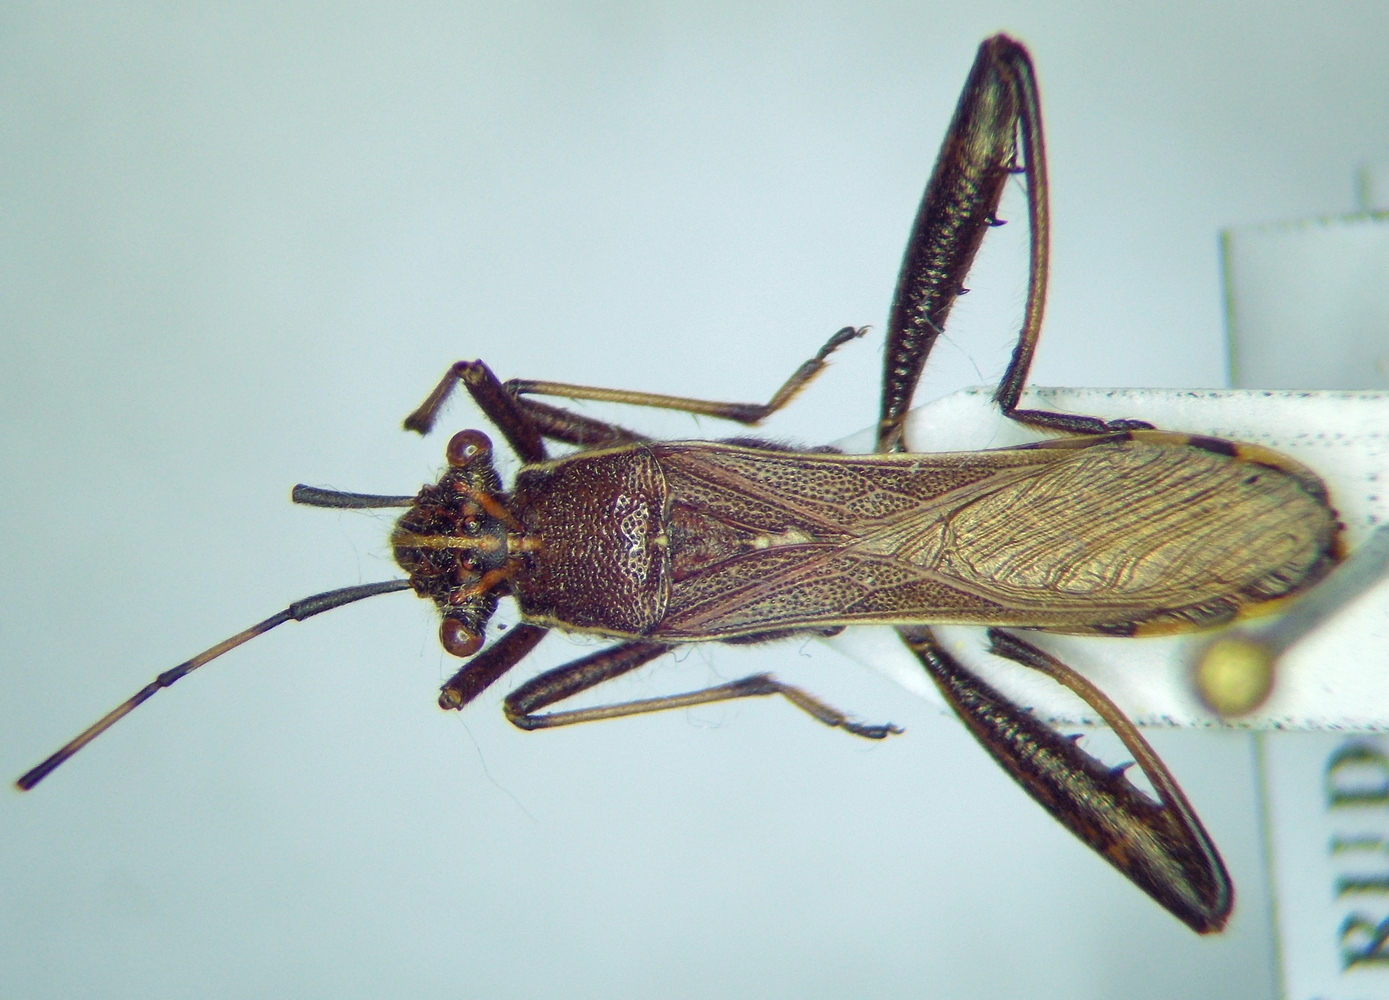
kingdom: Animalia
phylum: Arthropoda
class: Insecta
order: Hemiptera
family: Alydidae
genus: Camptopus
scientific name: Camptopus lateralis
